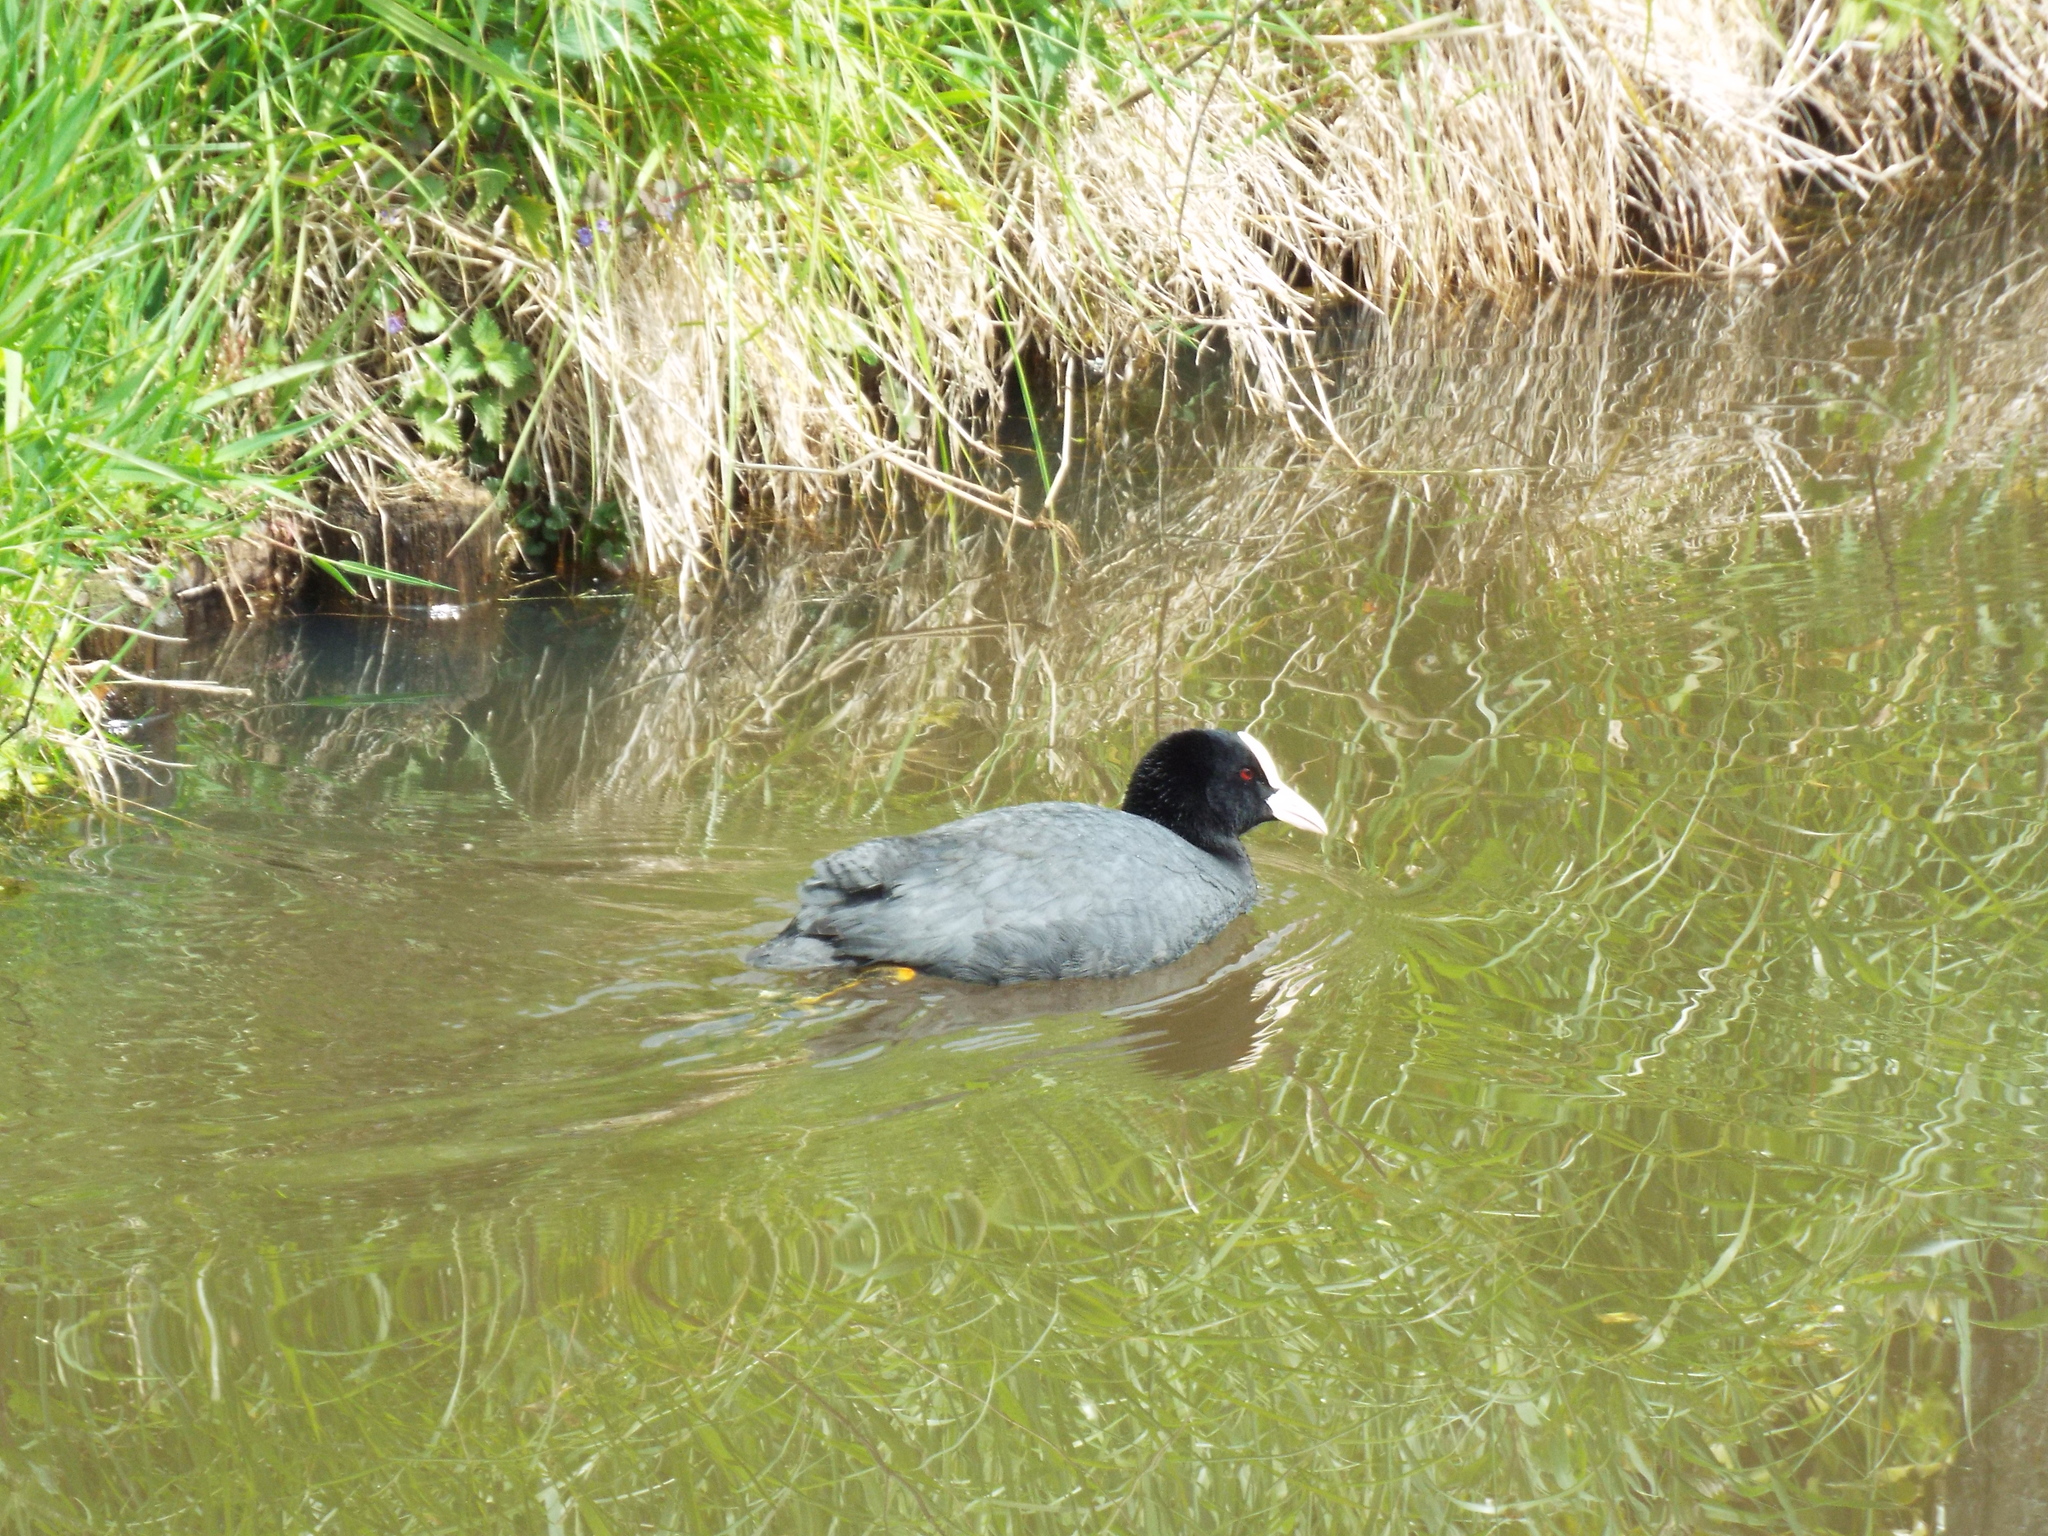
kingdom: Animalia
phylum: Chordata
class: Aves
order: Gruiformes
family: Rallidae
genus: Fulica
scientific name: Fulica atra
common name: Eurasian coot
